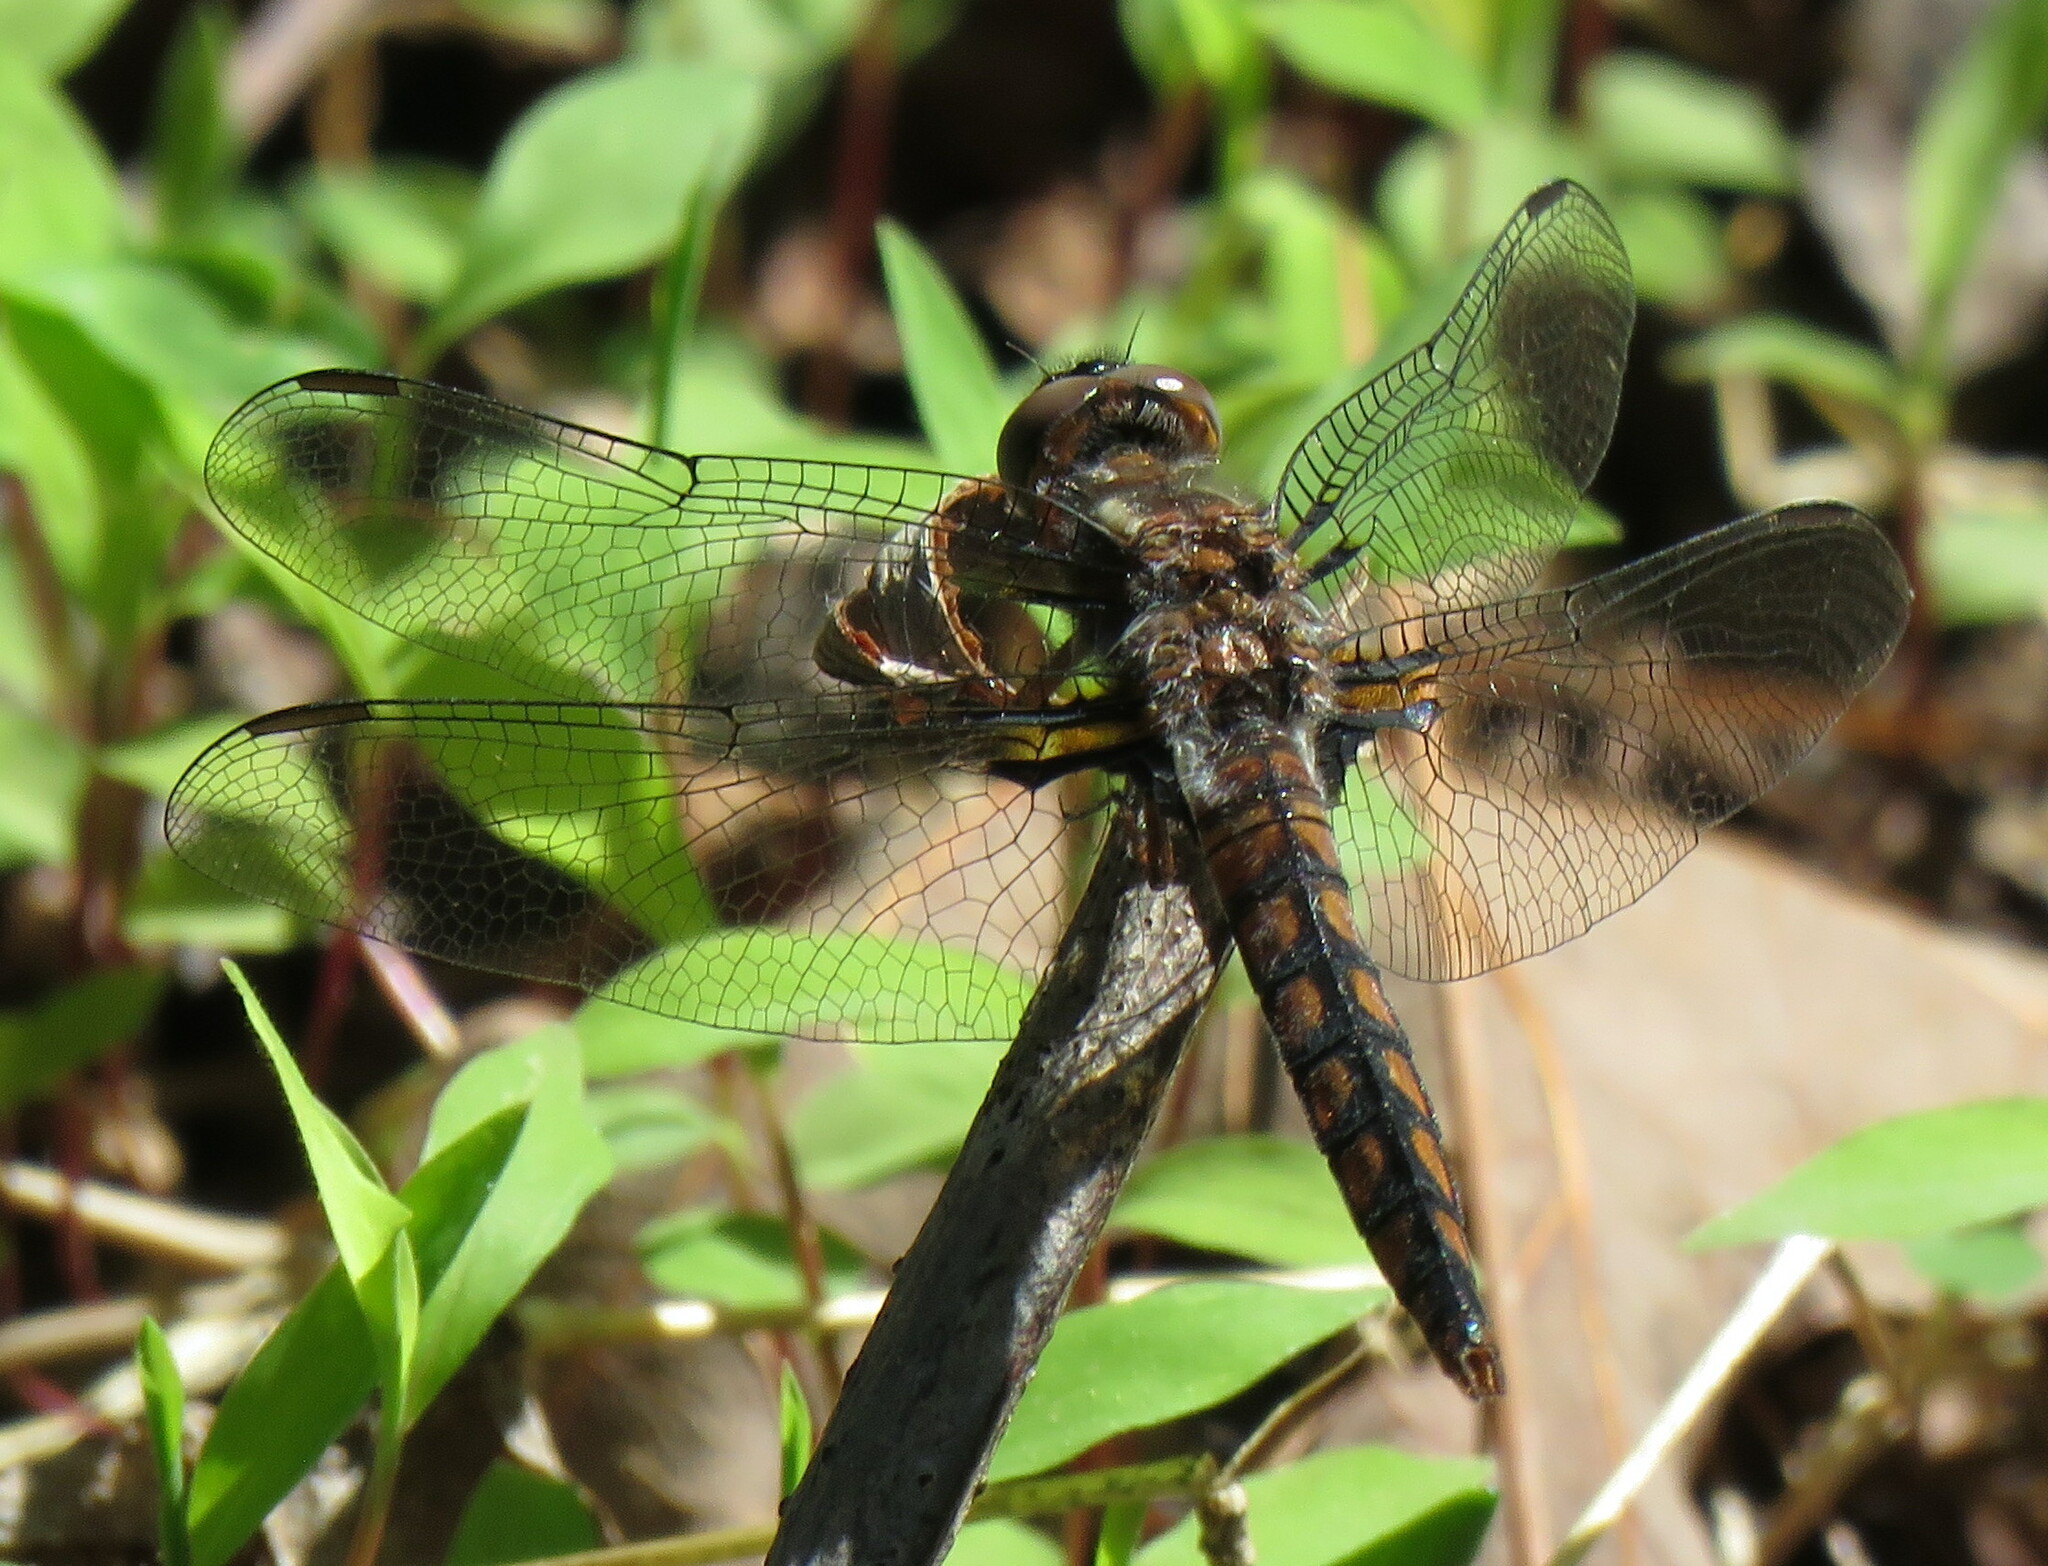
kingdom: Animalia
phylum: Arthropoda
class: Insecta
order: Odonata
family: Libellulidae
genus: Ladona
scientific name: Ladona deplanata
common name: Blue corporal
